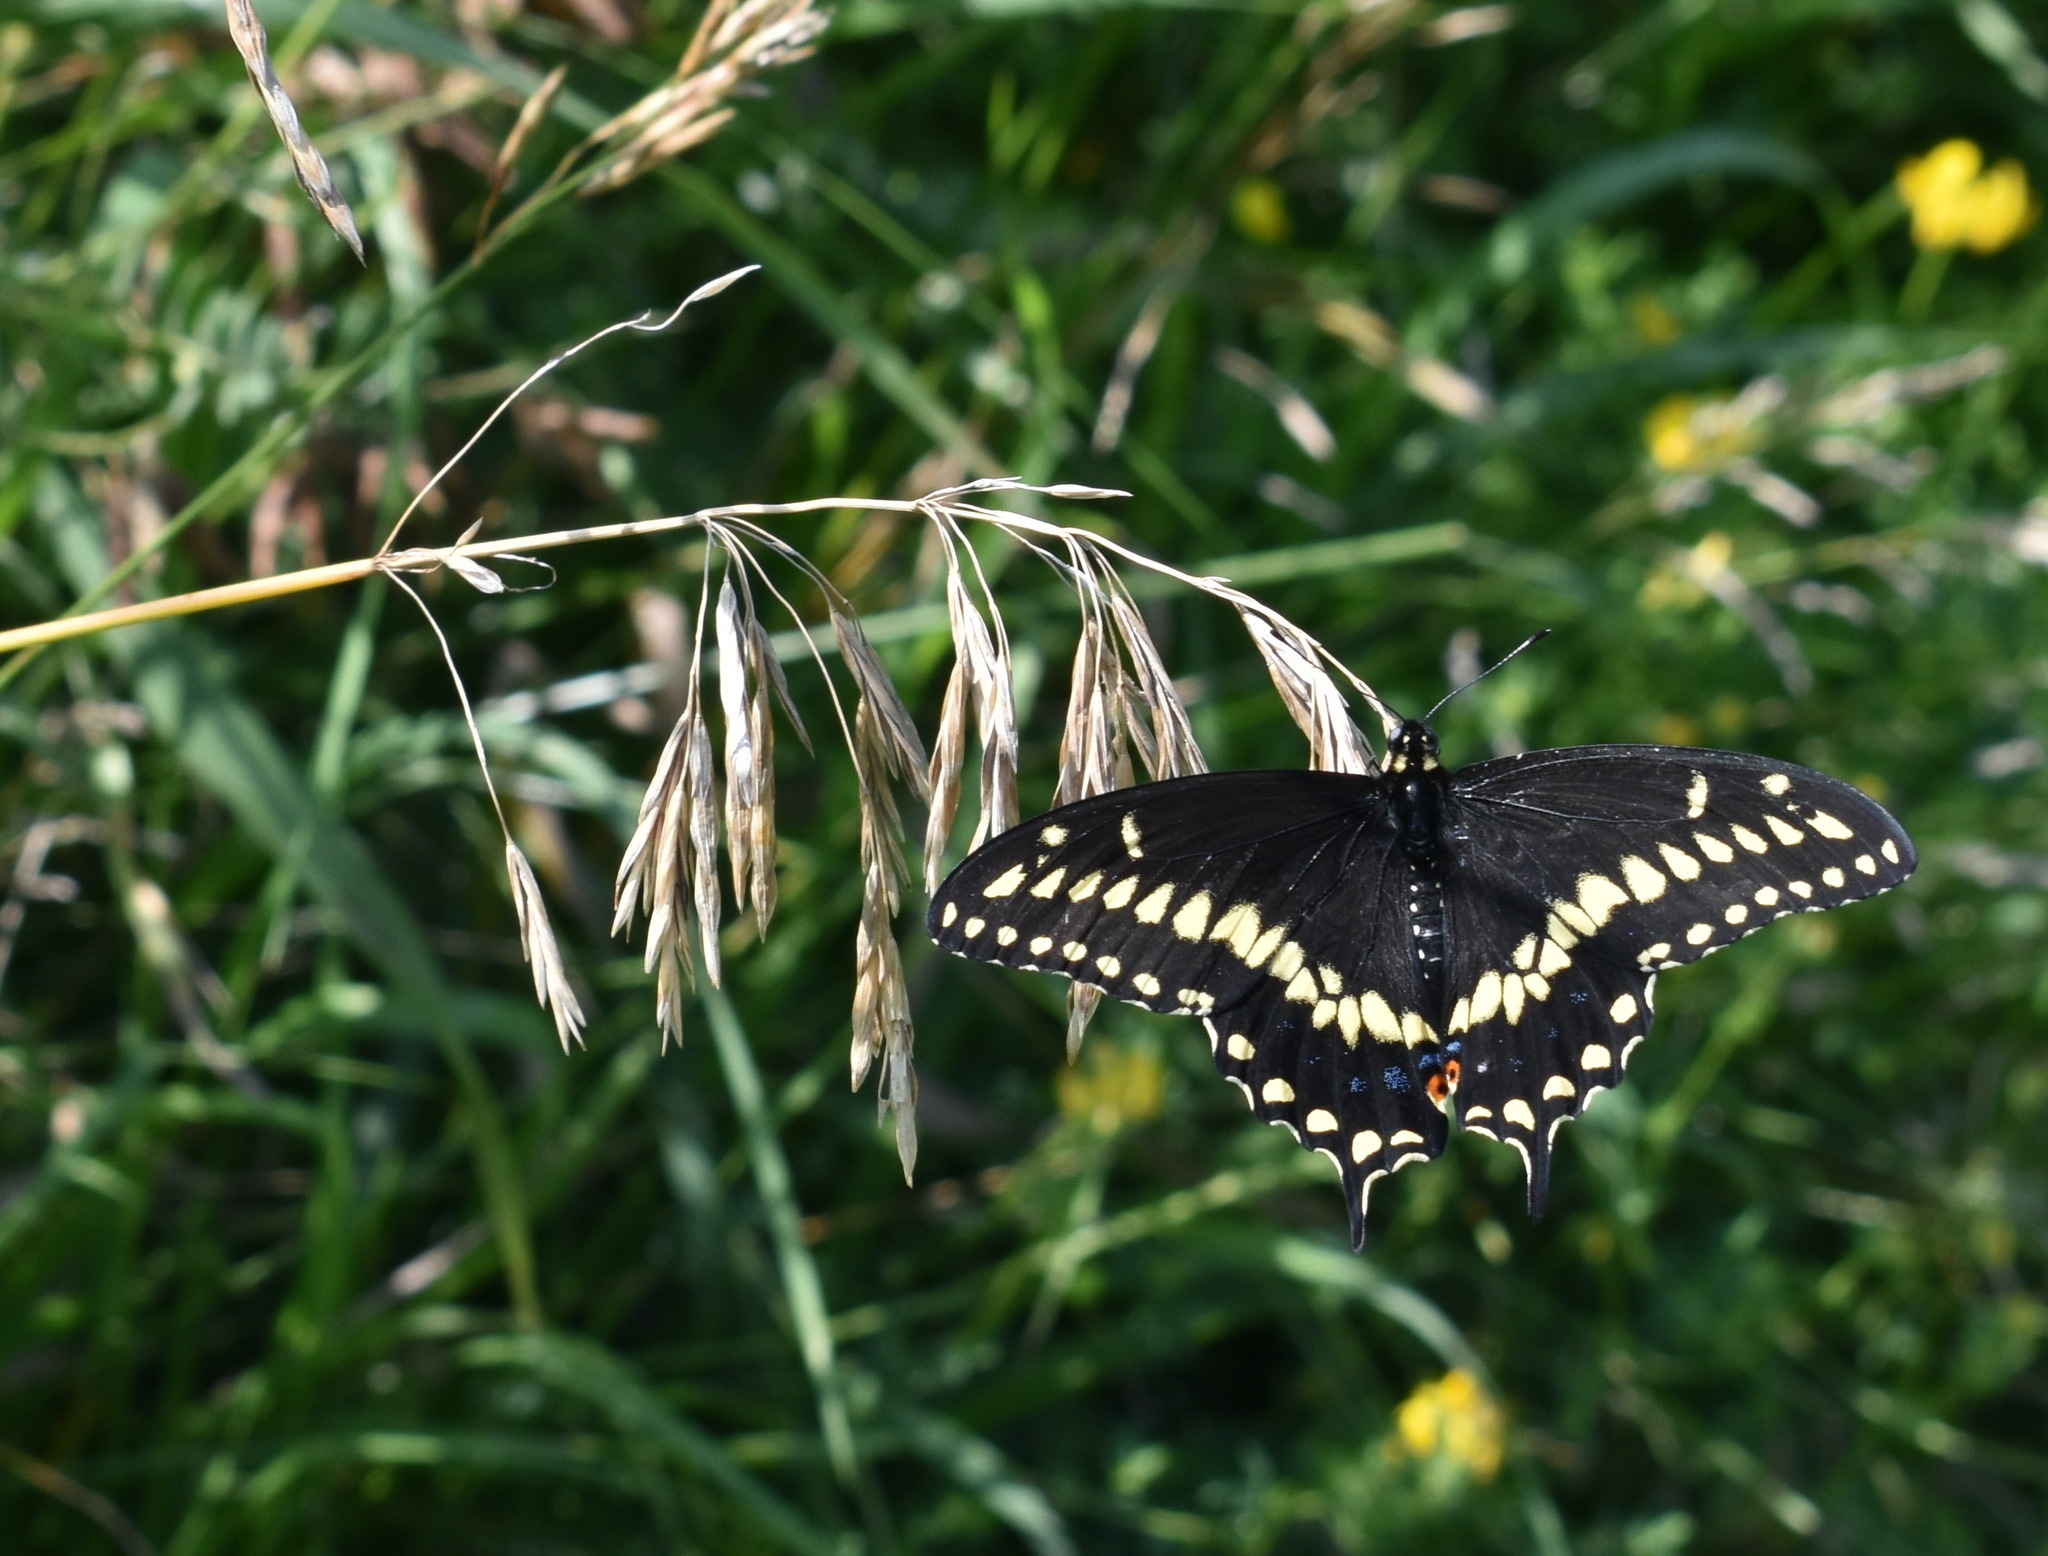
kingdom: Animalia
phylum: Arthropoda
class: Insecta
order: Lepidoptera
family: Papilionidae
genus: Papilio
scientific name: Papilio polyxenes
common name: Black swallowtail
